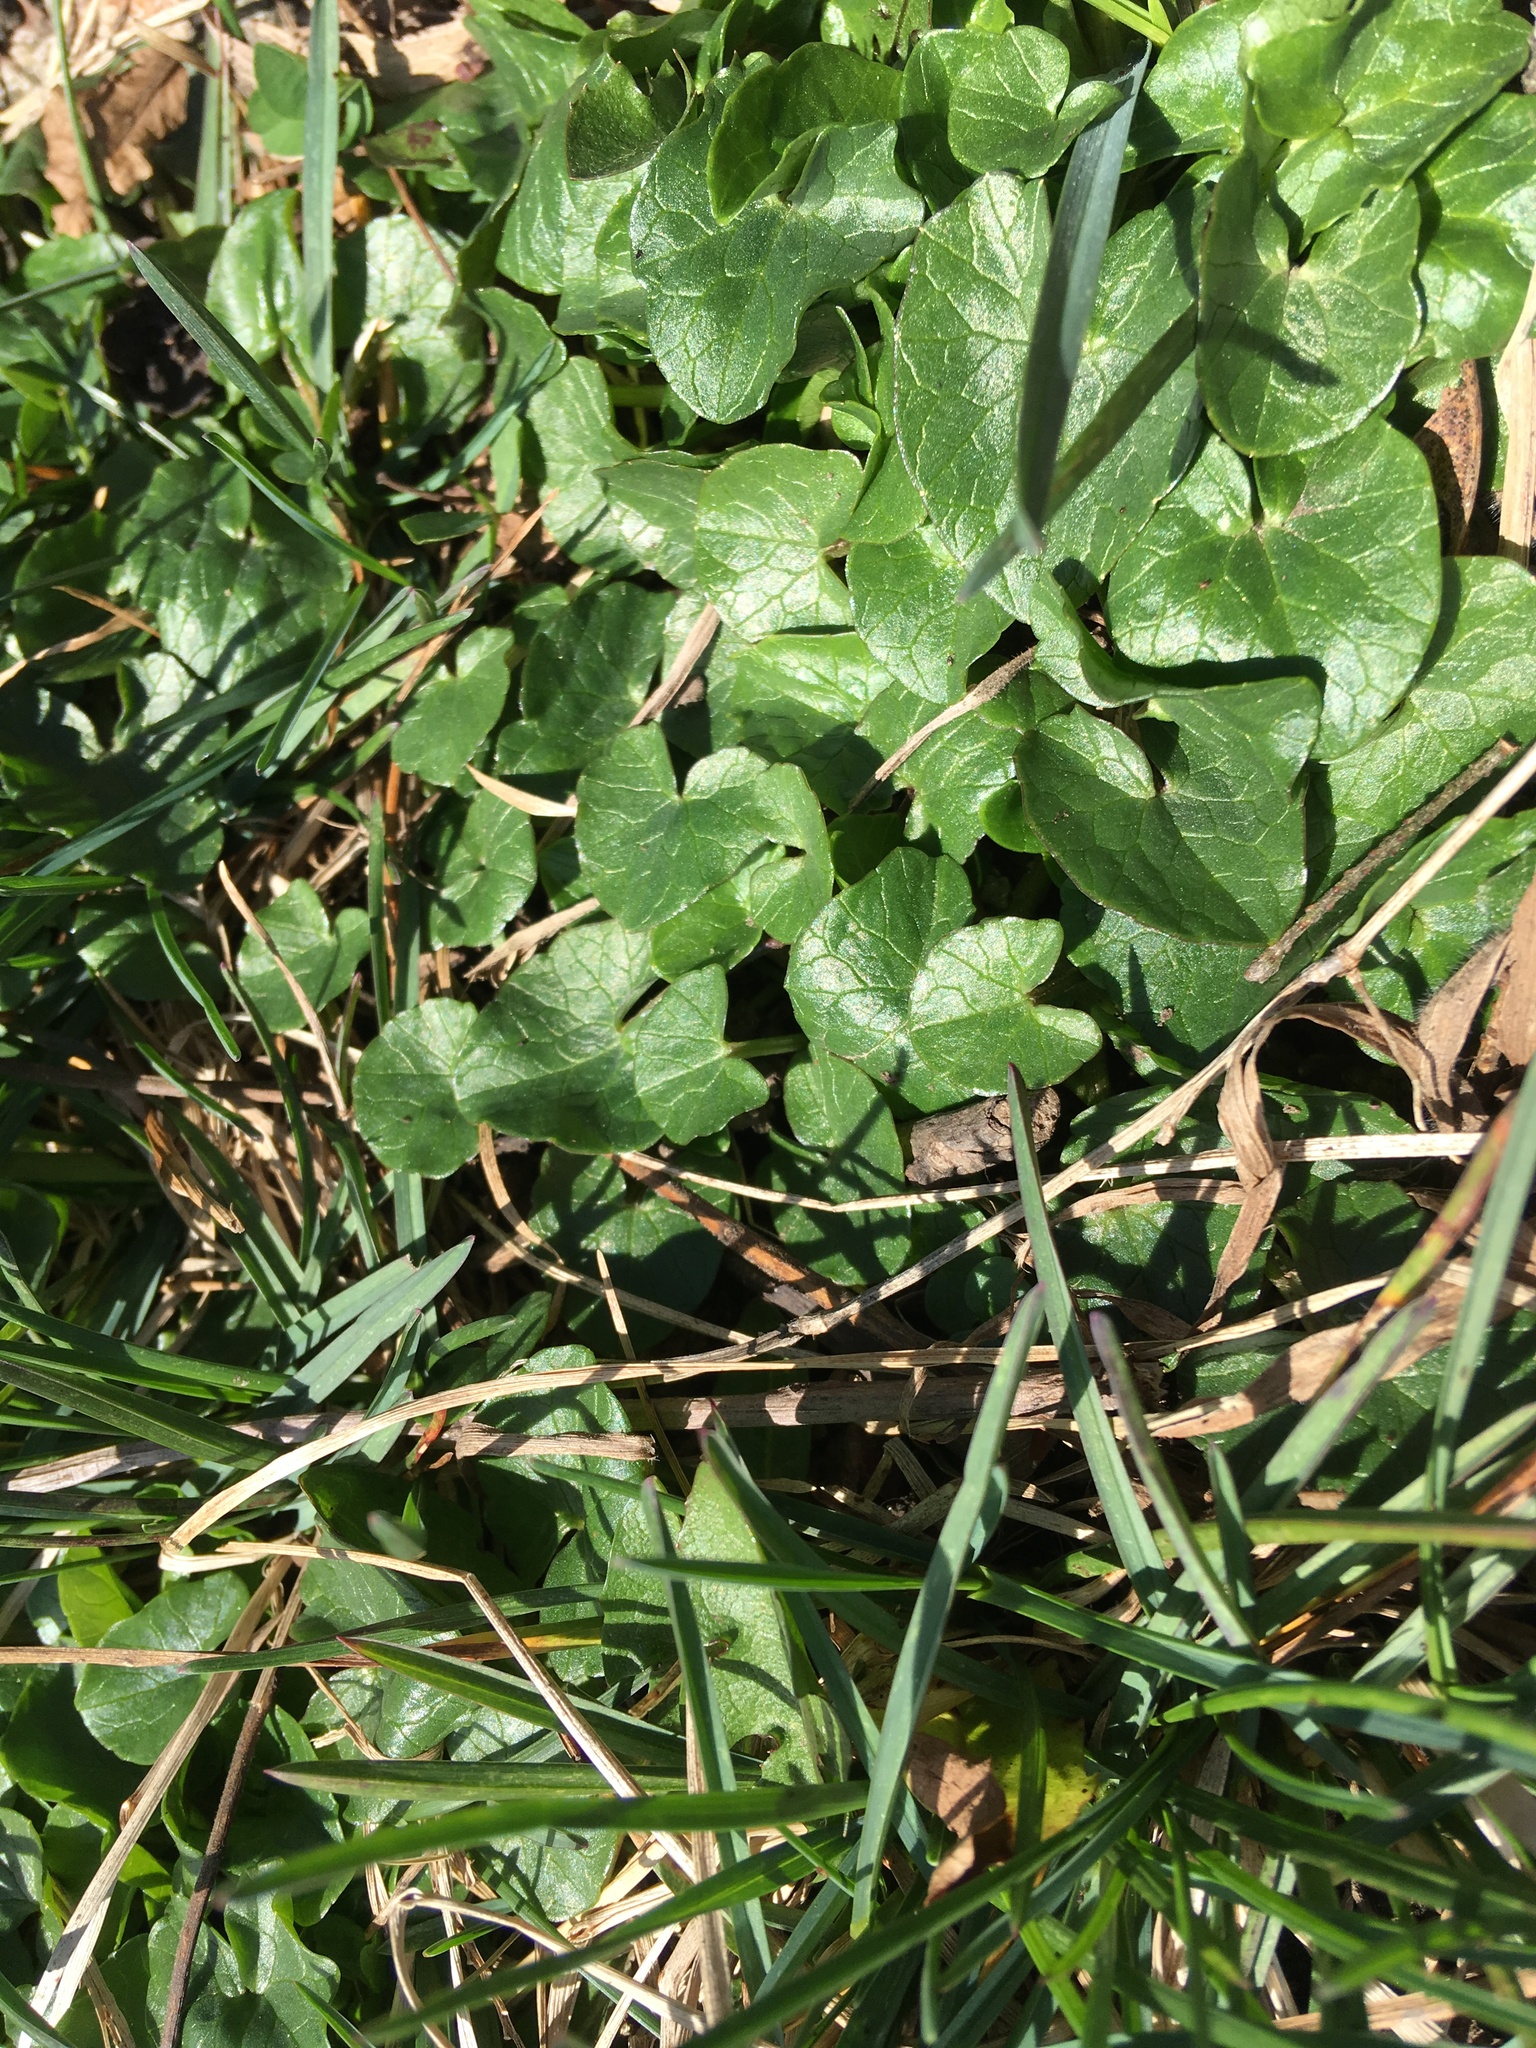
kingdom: Plantae
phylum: Tracheophyta
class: Magnoliopsida
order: Ranunculales
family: Ranunculaceae
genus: Ficaria
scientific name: Ficaria verna
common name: Lesser celandine
